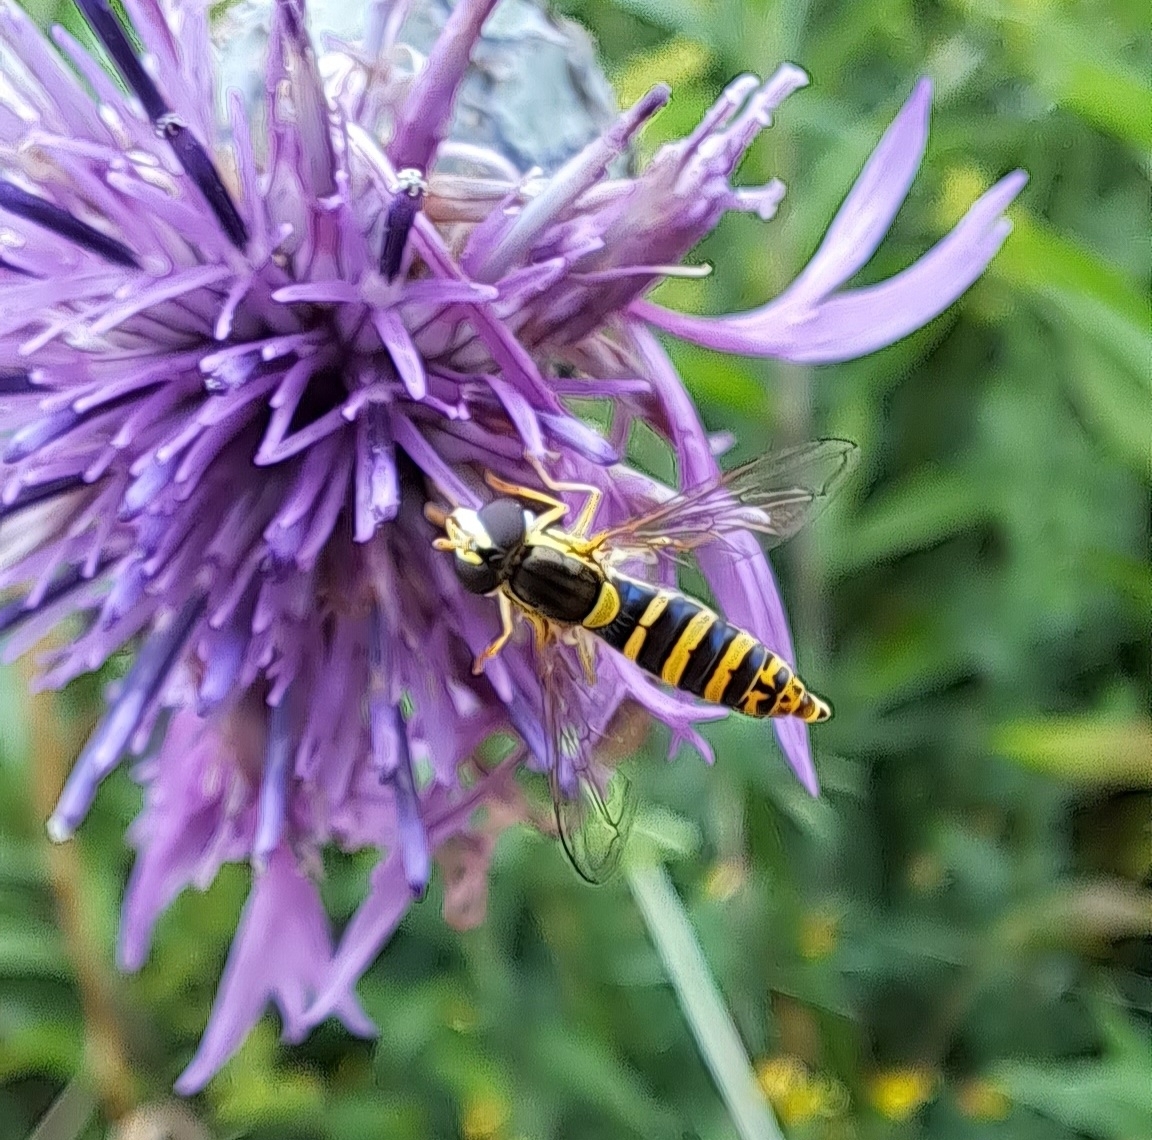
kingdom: Animalia
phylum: Arthropoda
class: Insecta
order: Diptera
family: Syrphidae
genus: Sphaerophoria
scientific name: Sphaerophoria
